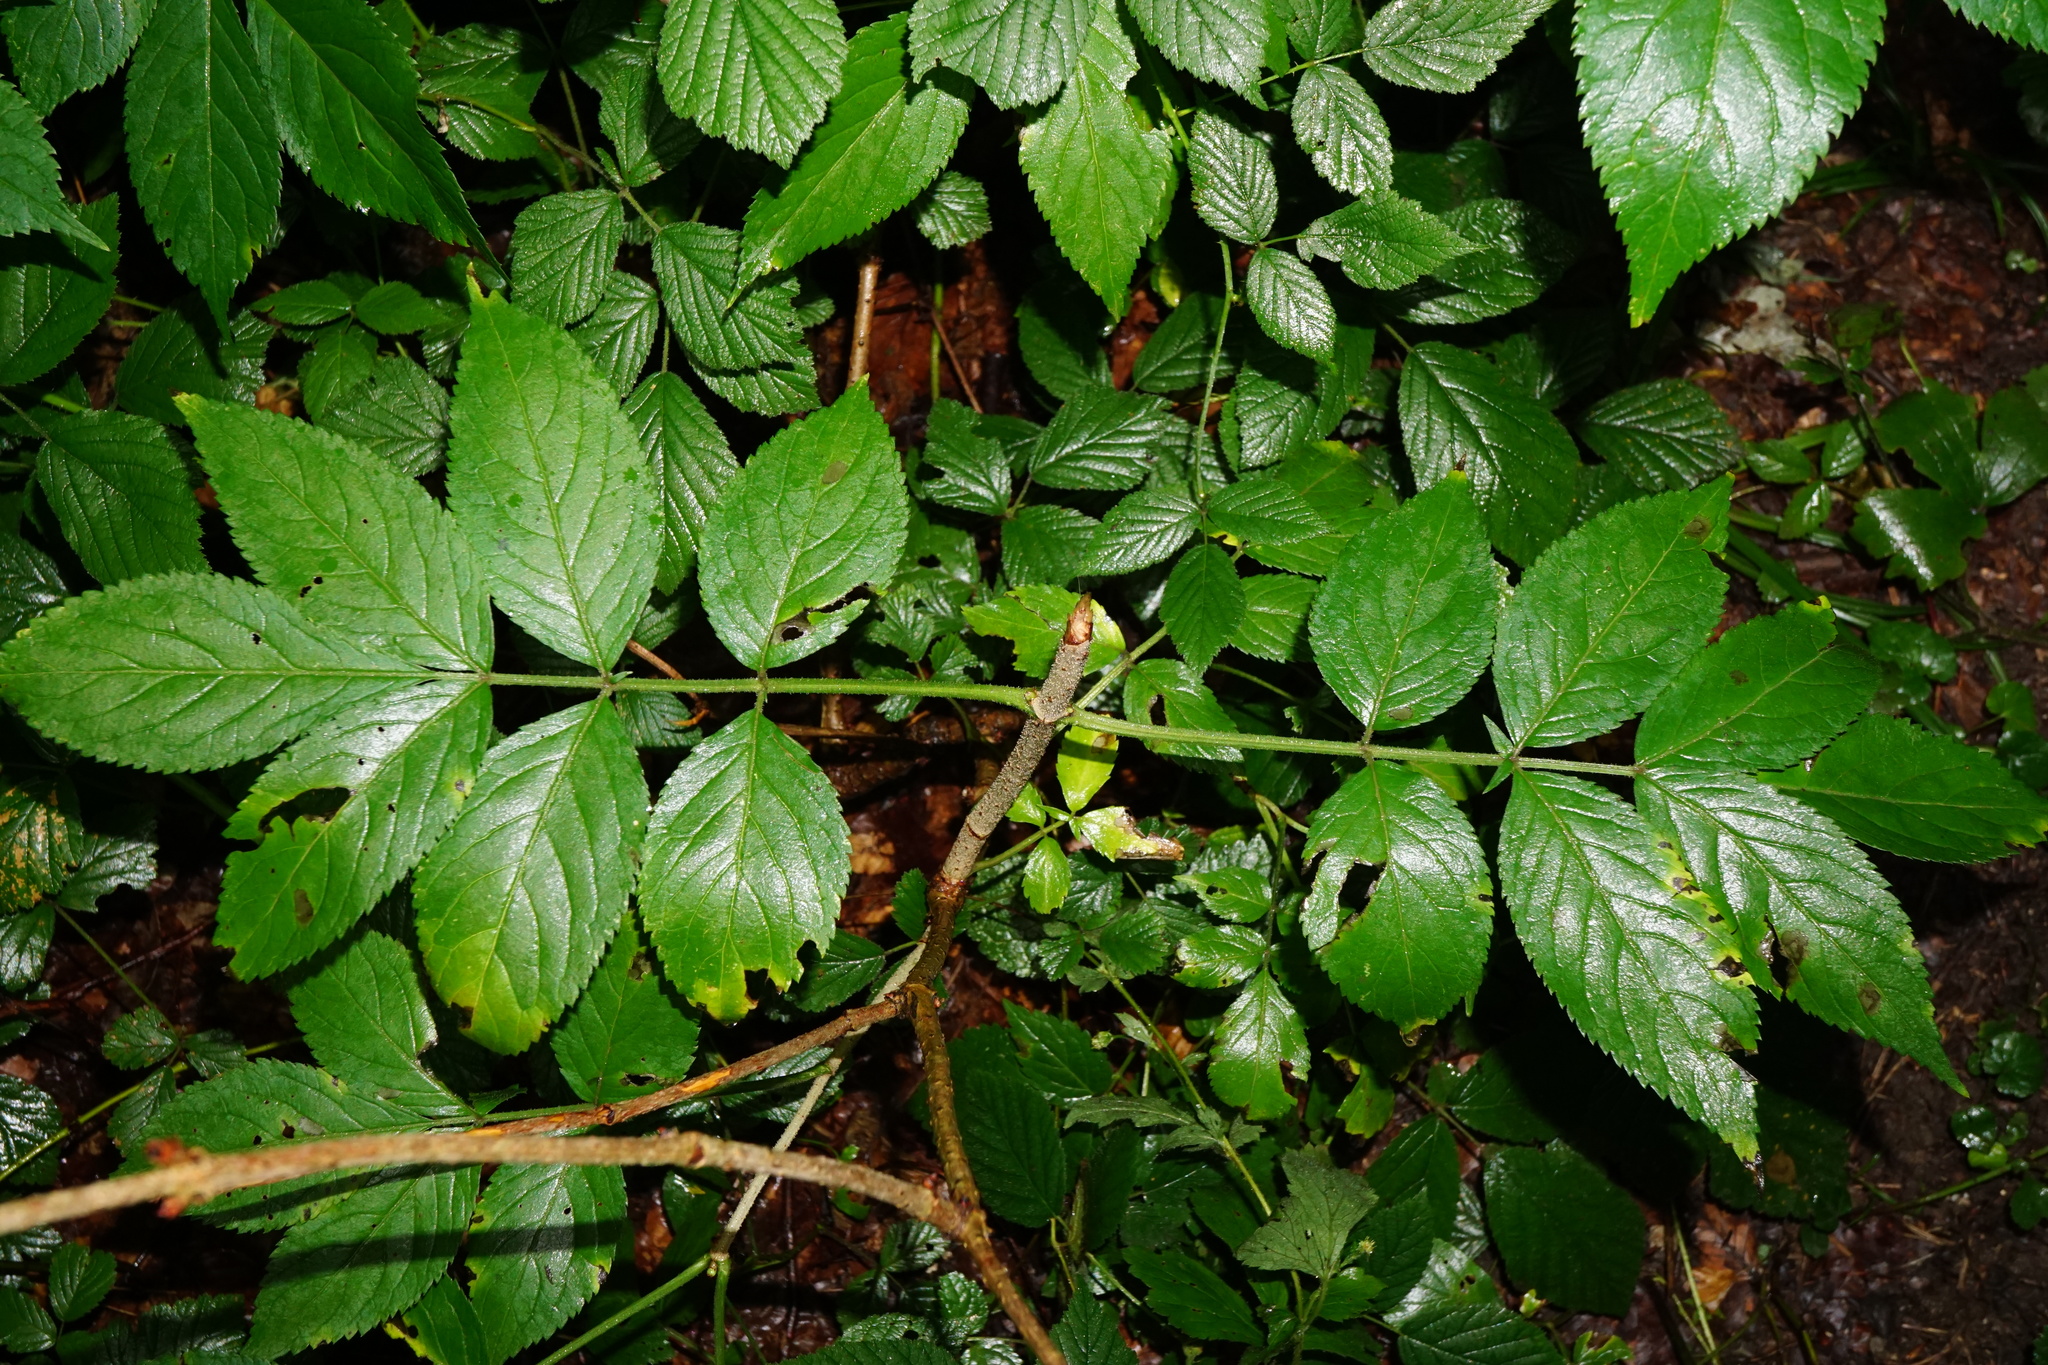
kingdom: Plantae
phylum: Tracheophyta
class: Magnoliopsida
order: Dipsacales
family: Viburnaceae
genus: Sambucus
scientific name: Sambucus nigra
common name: Elder
